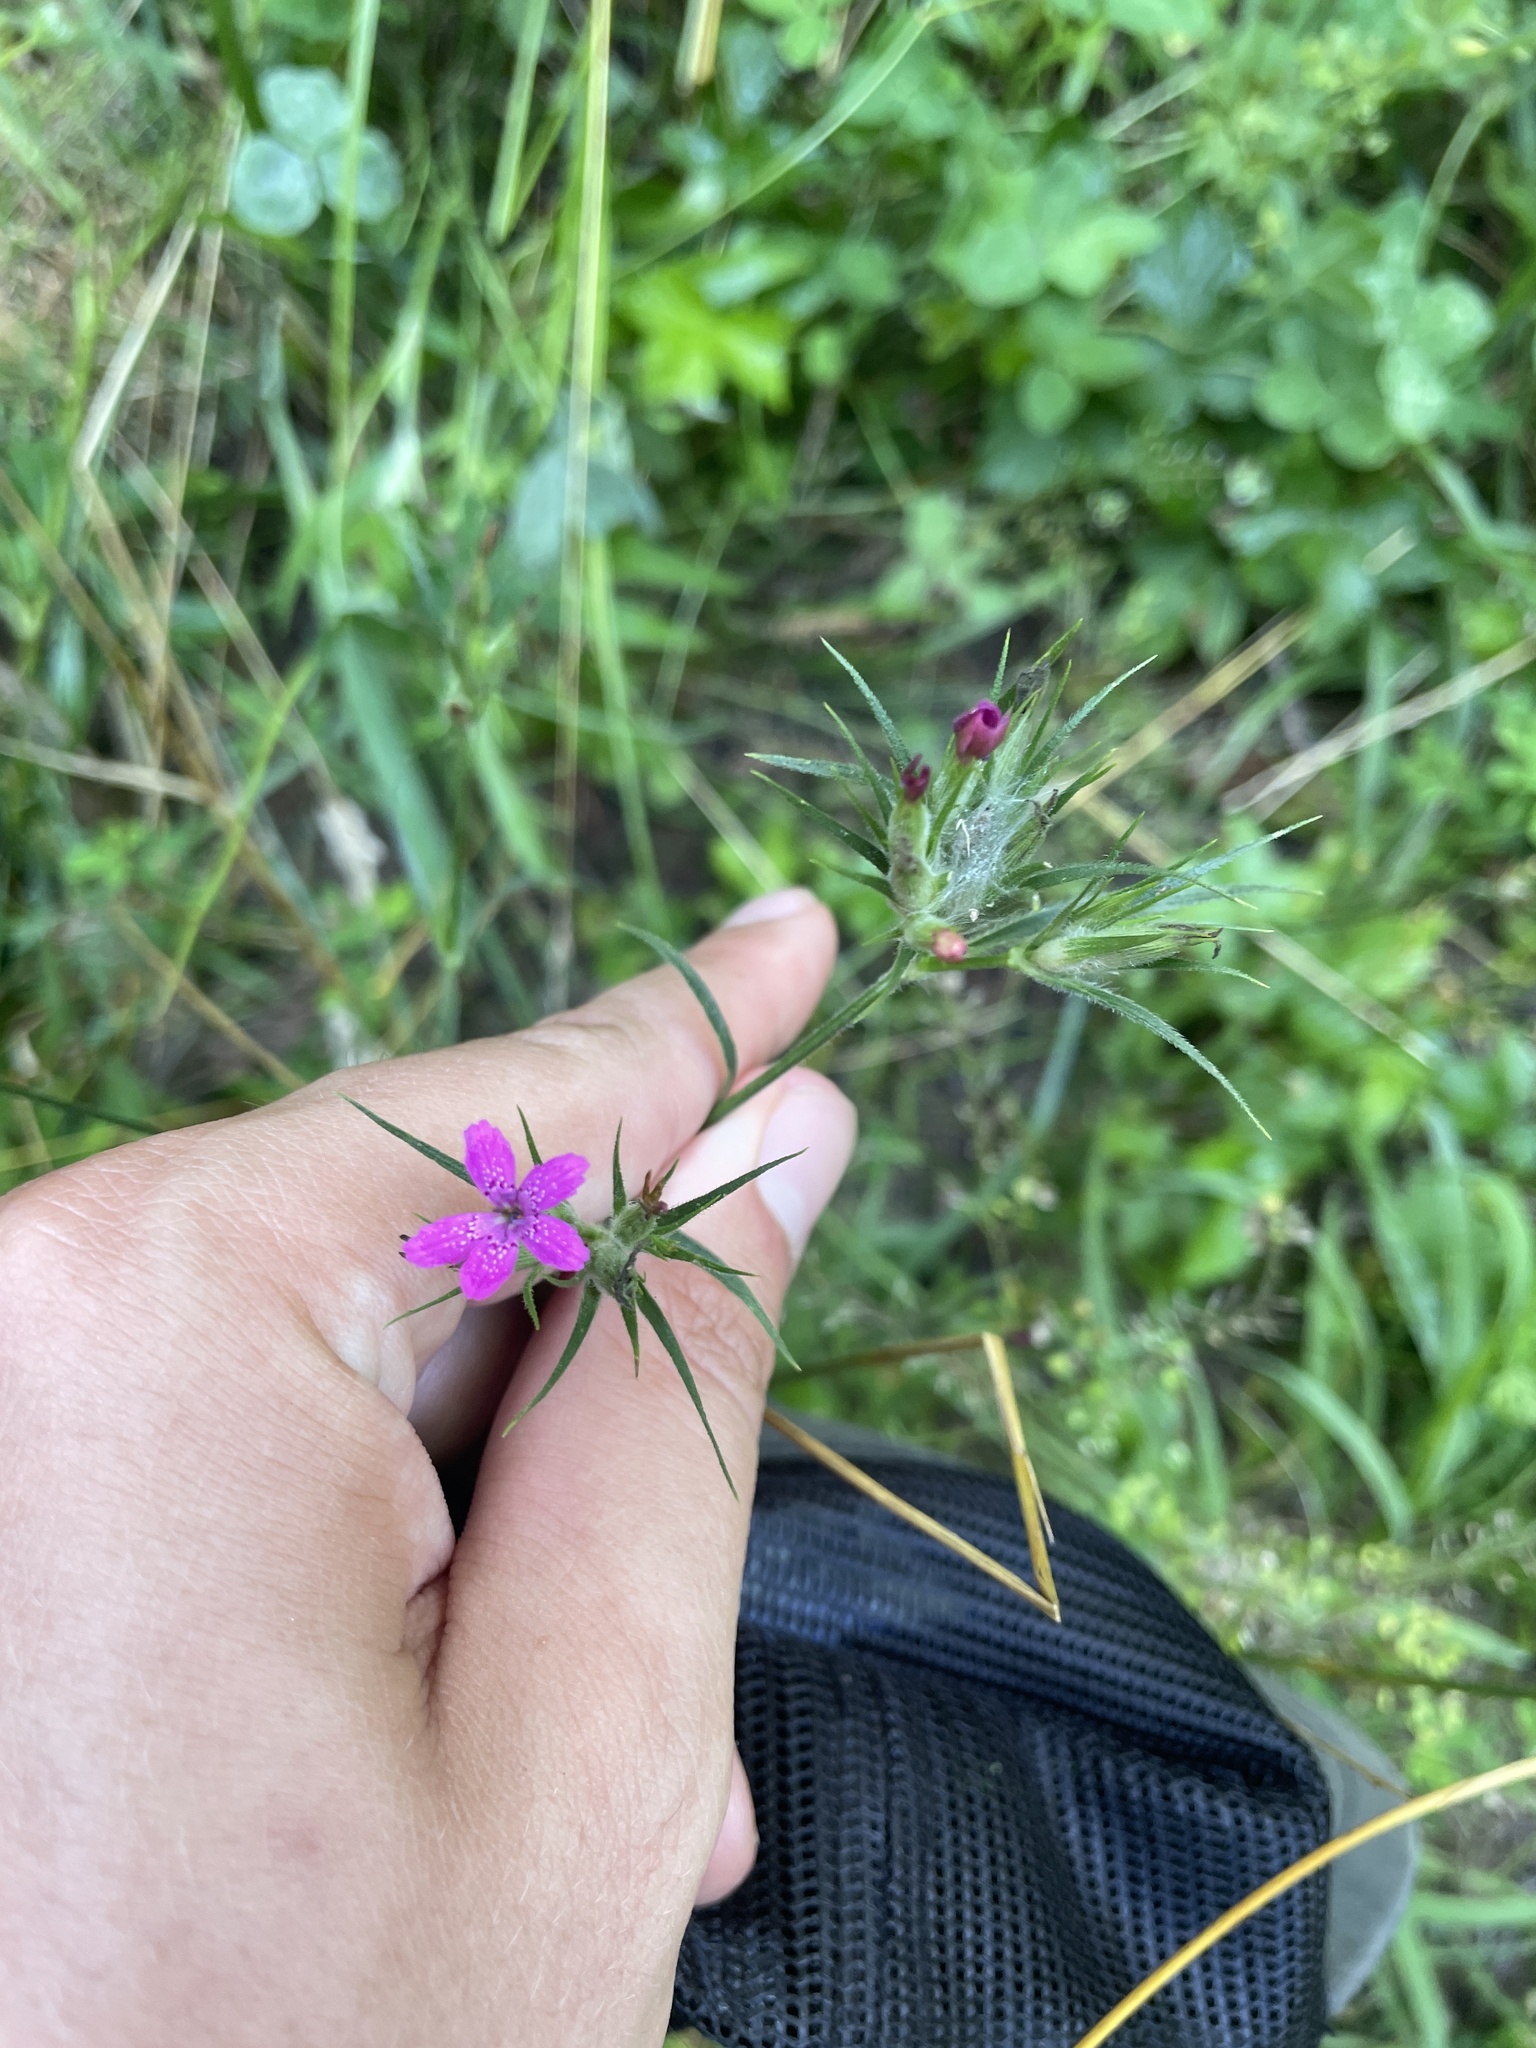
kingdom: Plantae
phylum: Tracheophyta
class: Magnoliopsida
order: Caryophyllales
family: Caryophyllaceae
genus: Dianthus
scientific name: Dianthus armeria
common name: Deptford pink
